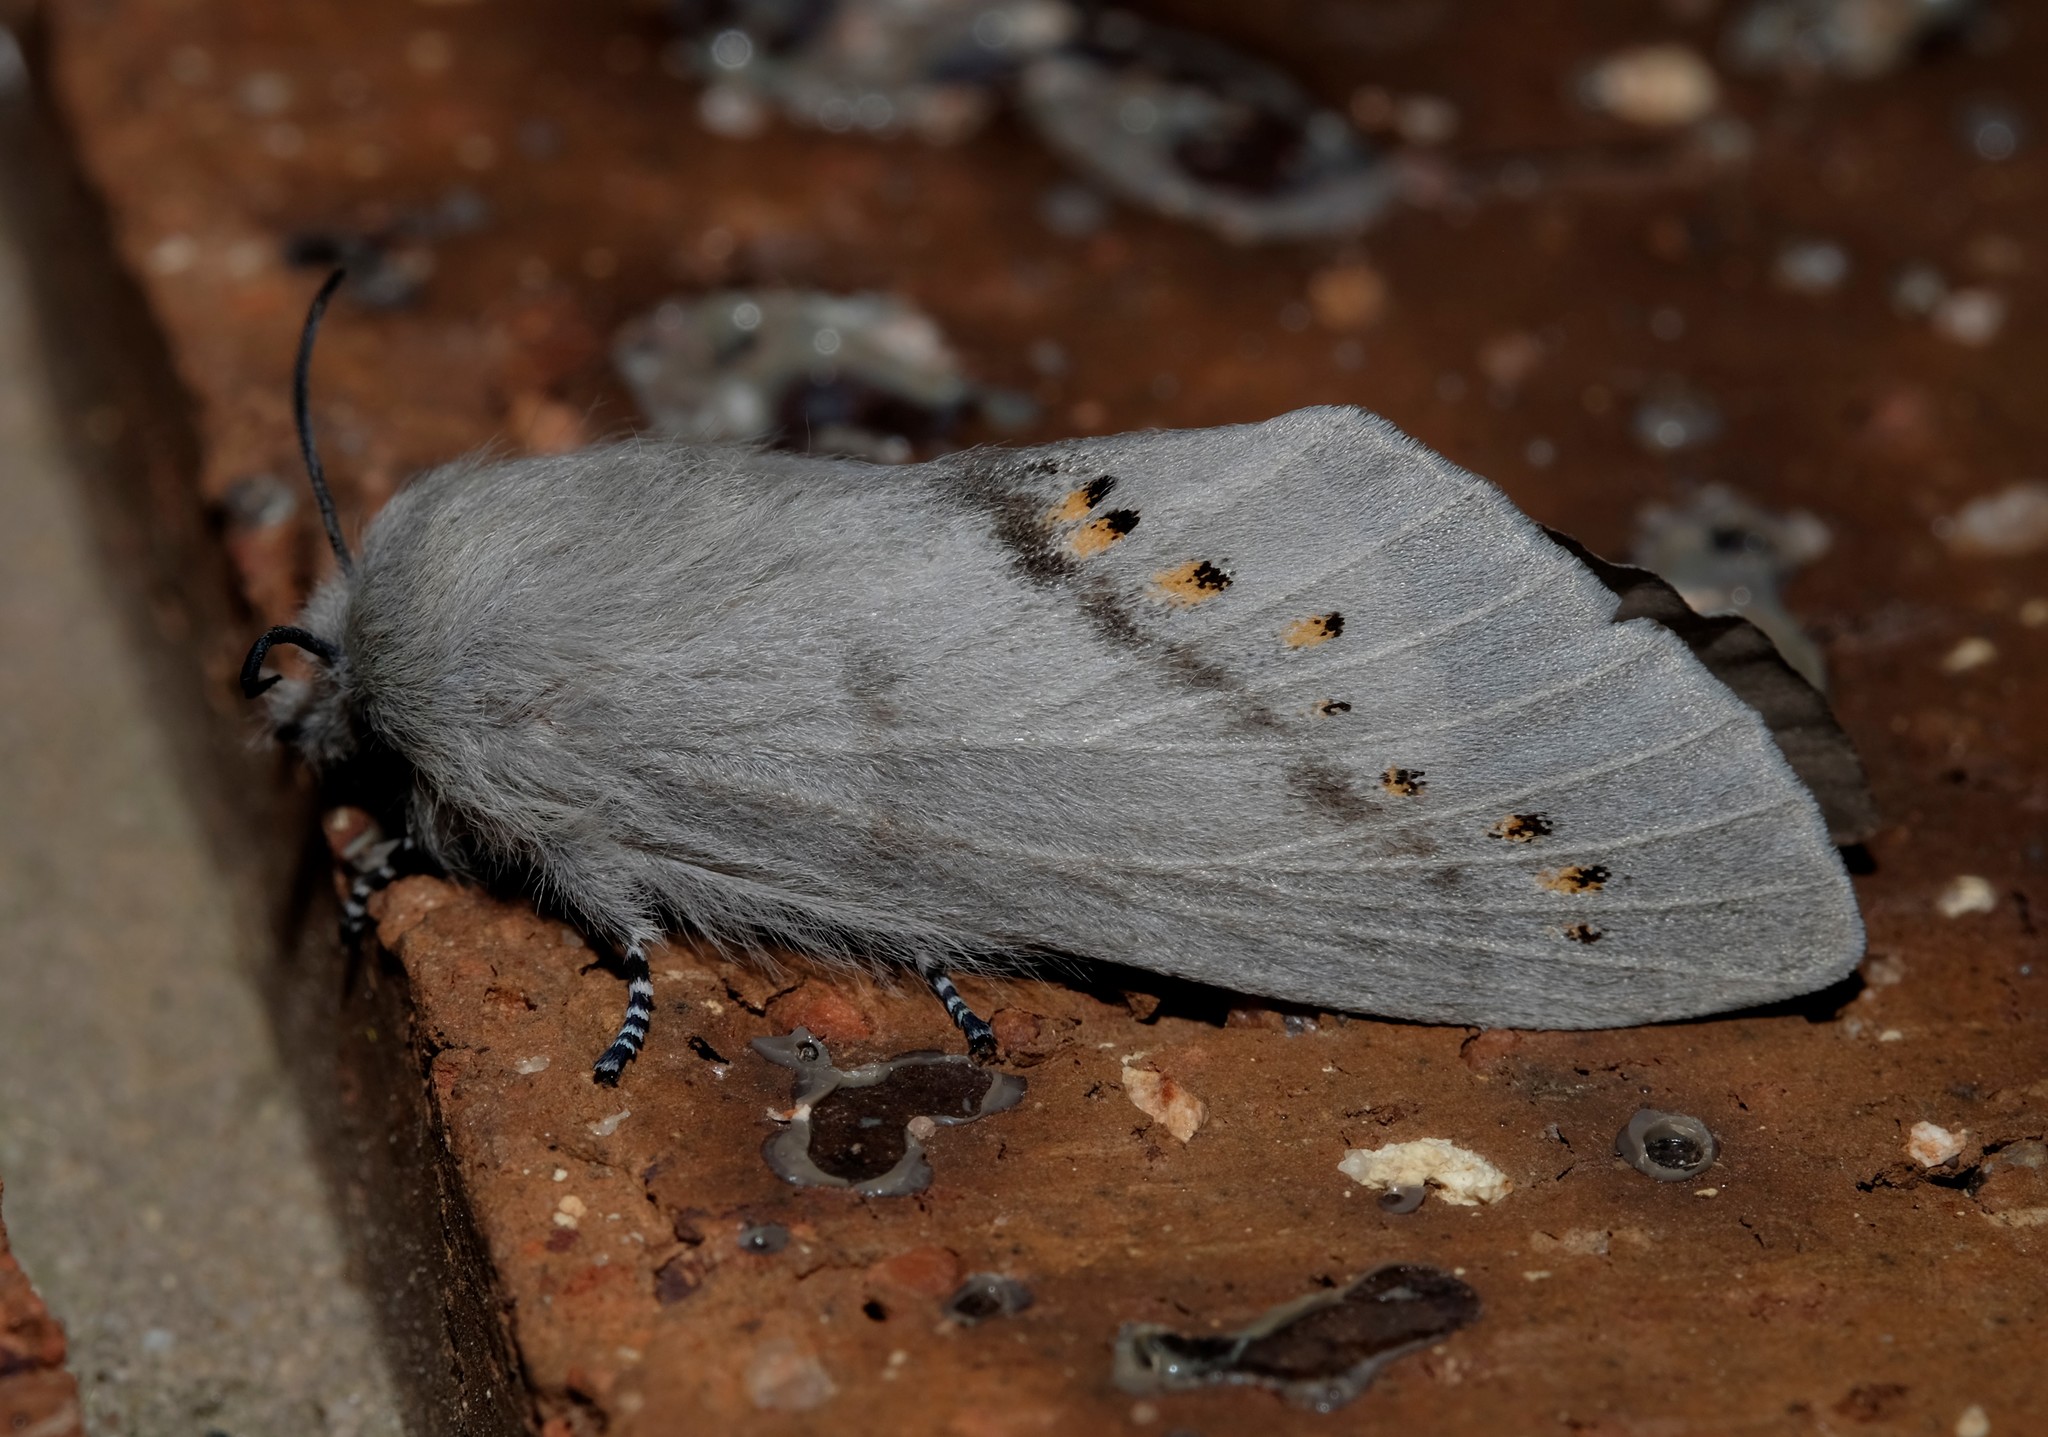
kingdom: Animalia
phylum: Arthropoda
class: Insecta
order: Lepidoptera
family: Lasiocampidae
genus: Pinara
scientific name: Pinara divisa
